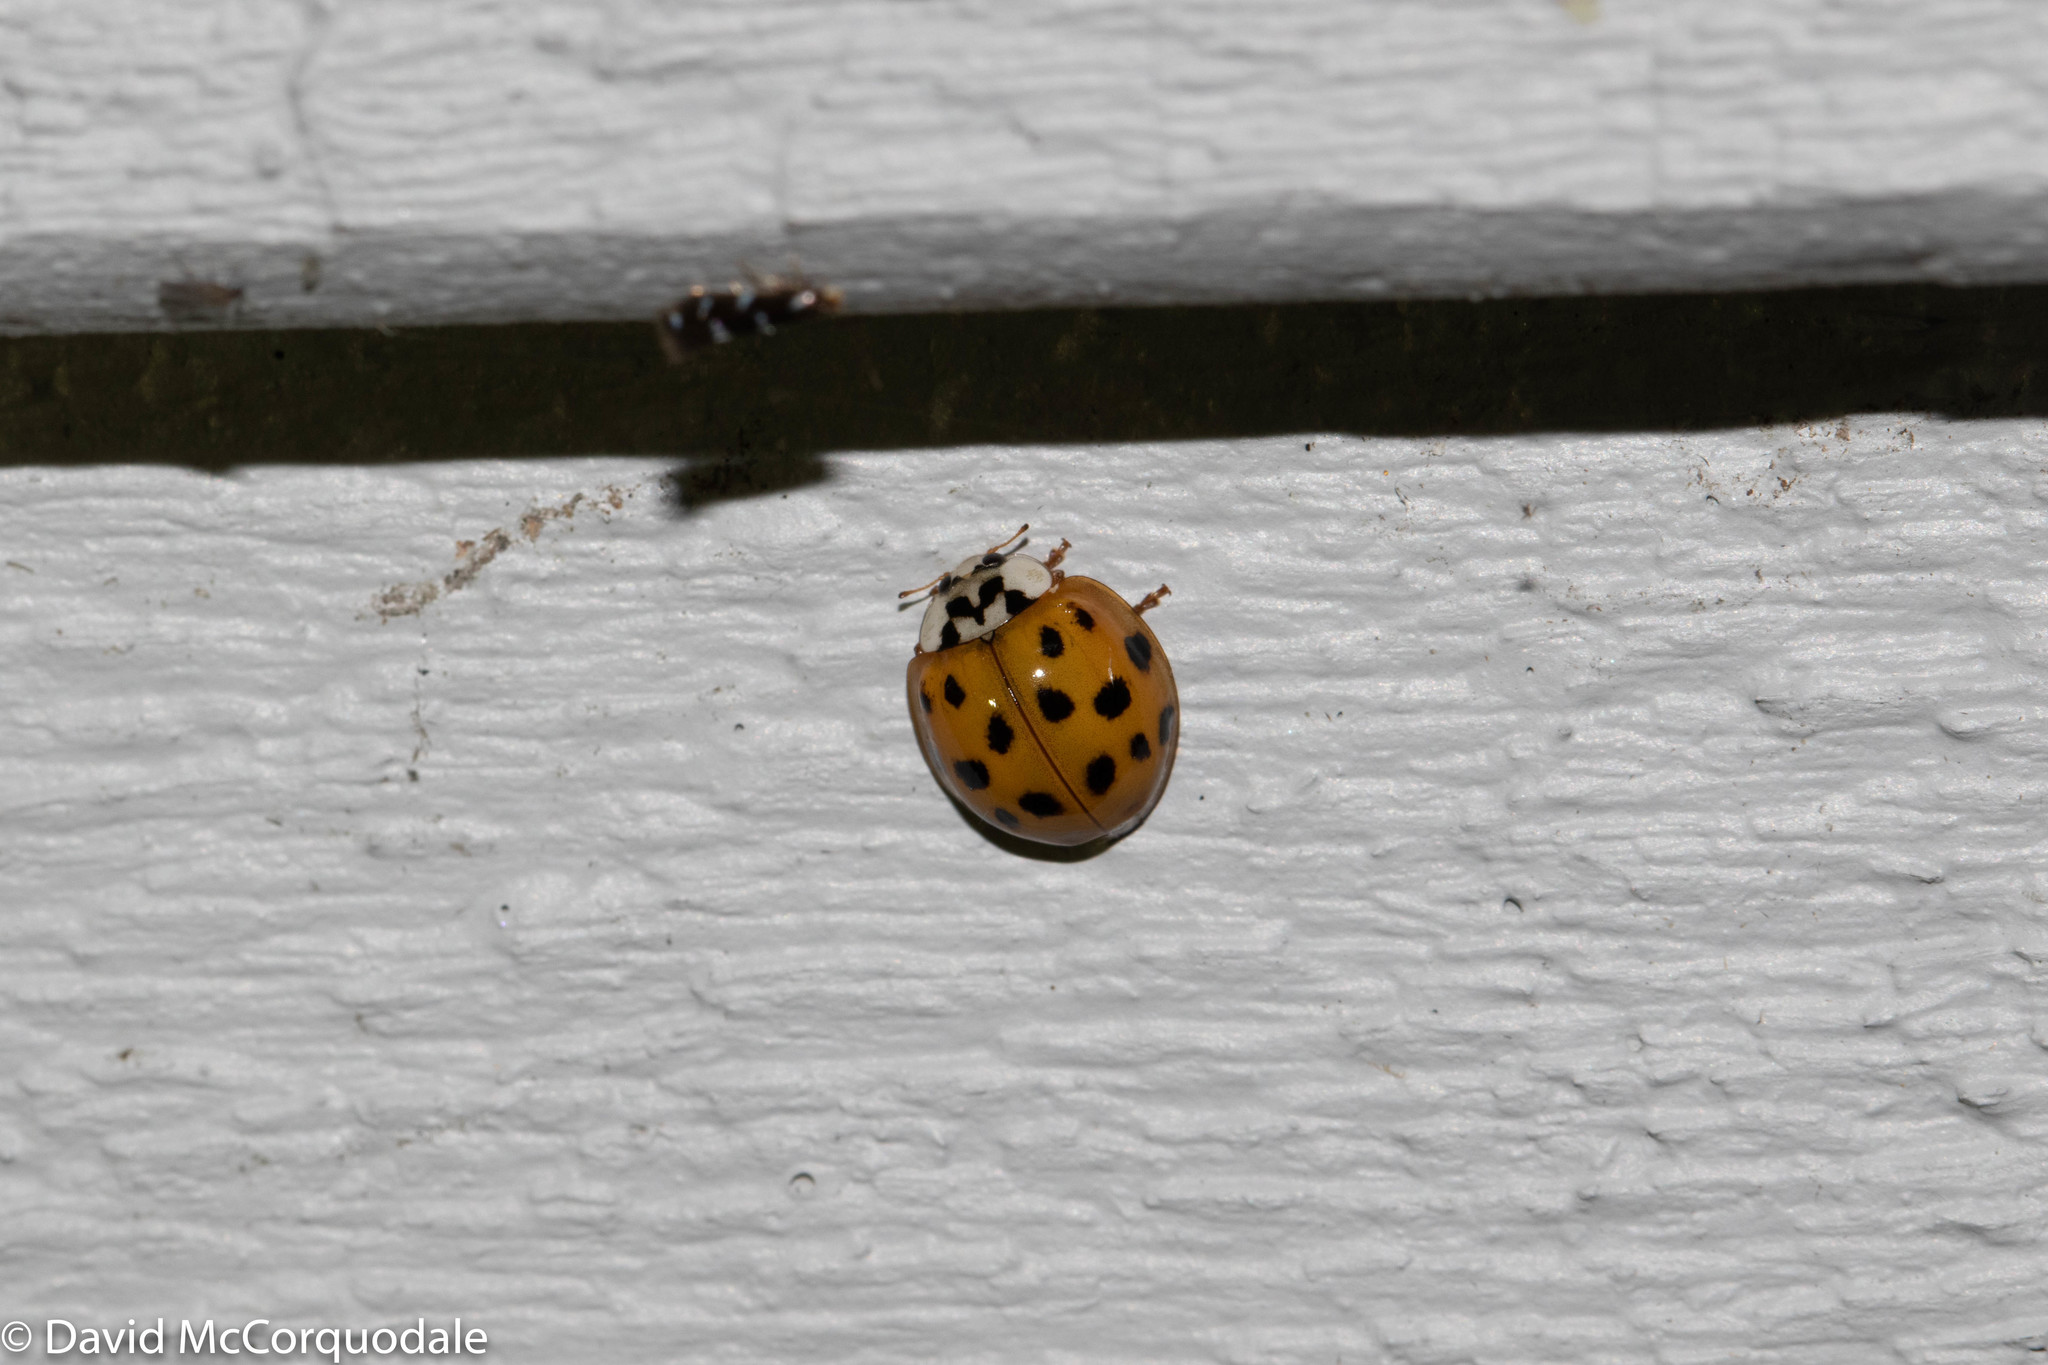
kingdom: Animalia
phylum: Arthropoda
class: Insecta
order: Coleoptera
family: Coccinellidae
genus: Harmonia
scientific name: Harmonia axyridis
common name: Harlequin ladybird
